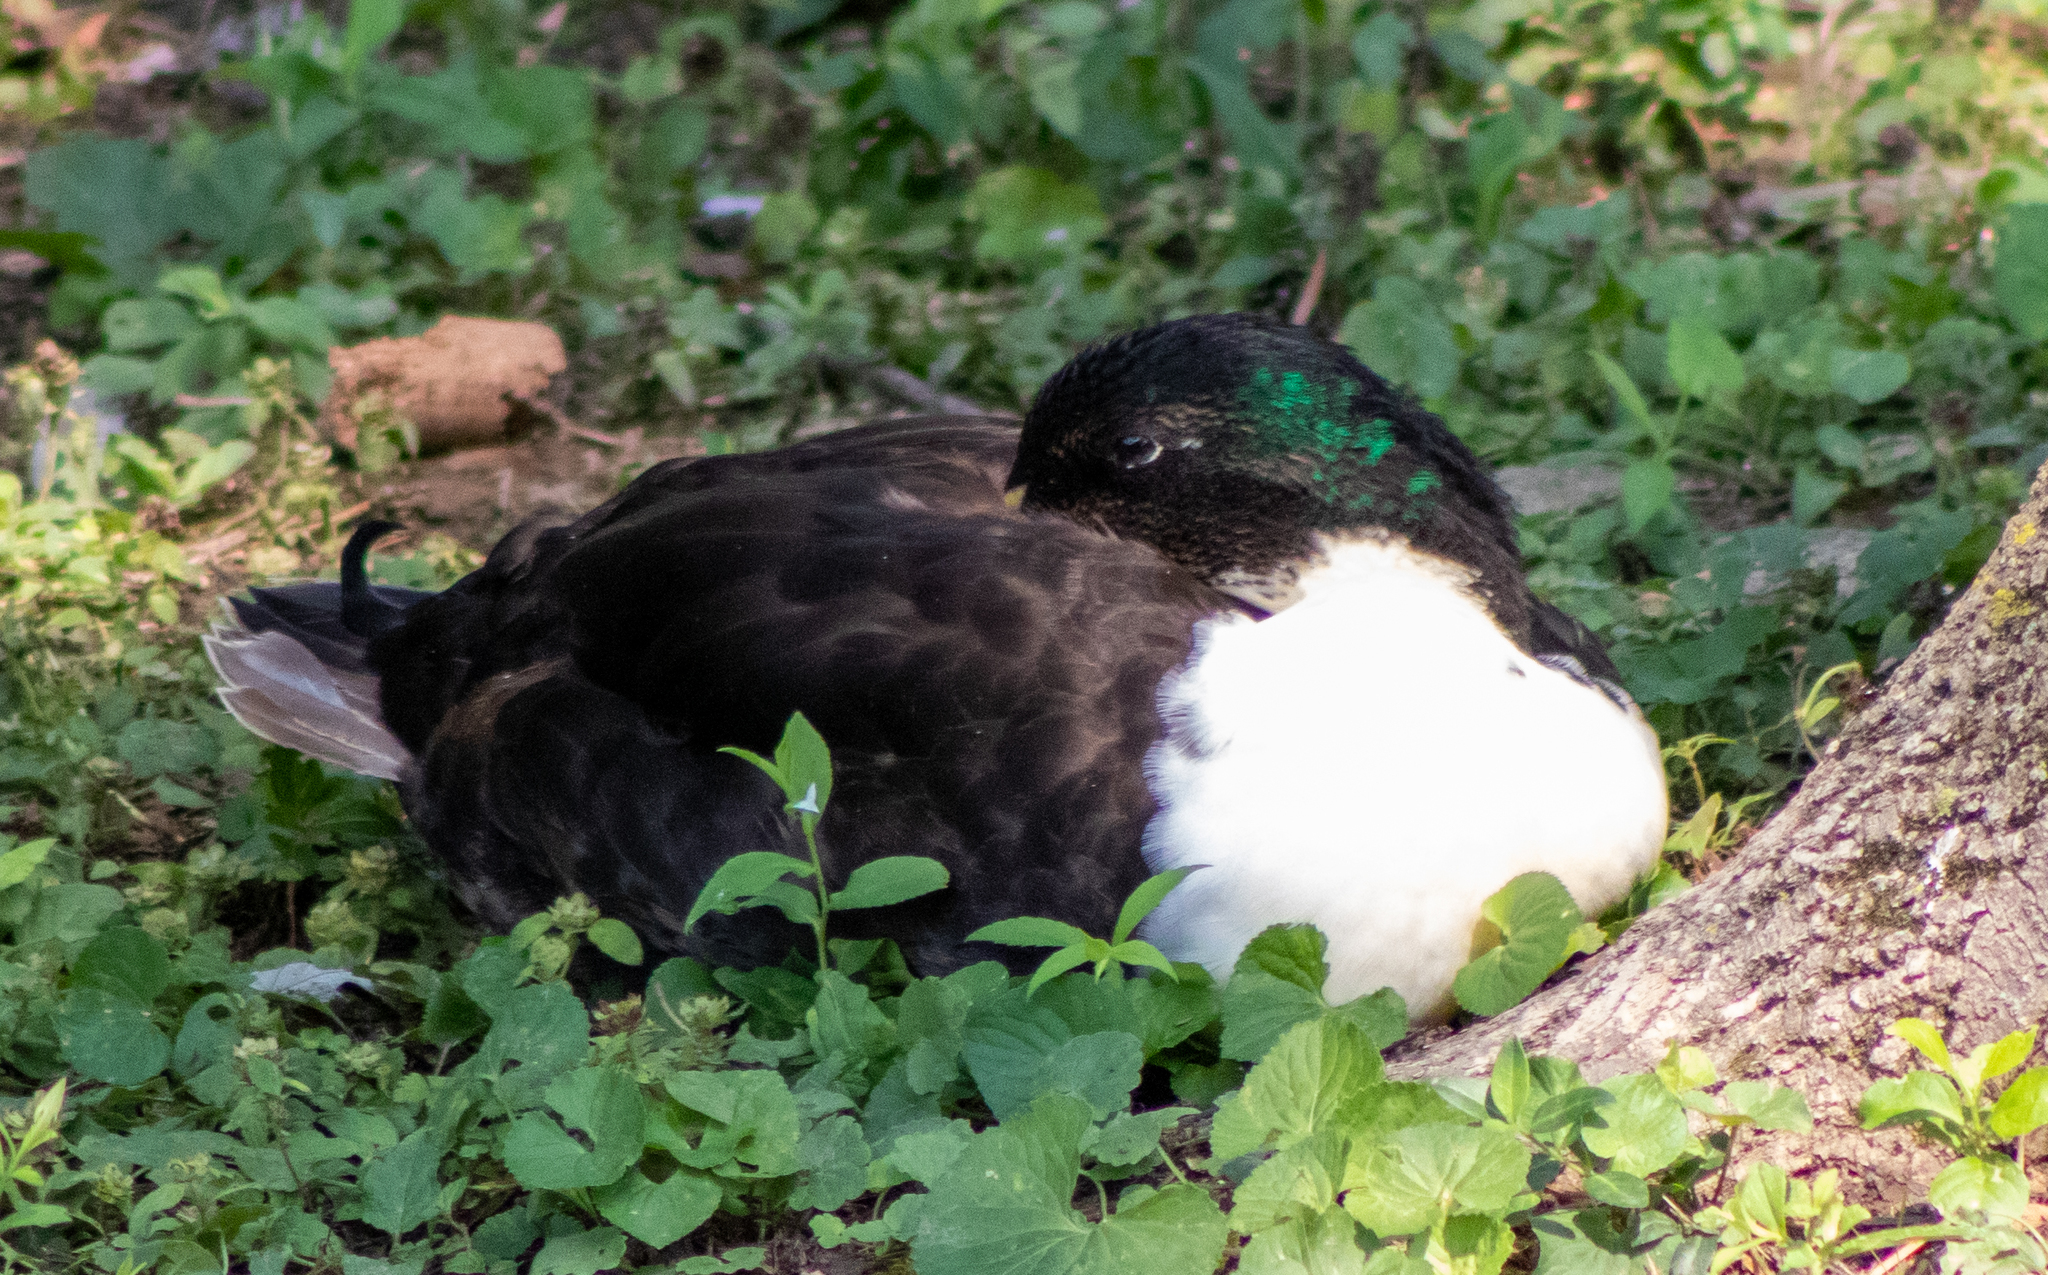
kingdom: Animalia
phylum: Chordata
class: Aves
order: Anseriformes
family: Anatidae
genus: Anas
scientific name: Anas platyrhynchos
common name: Mallard
